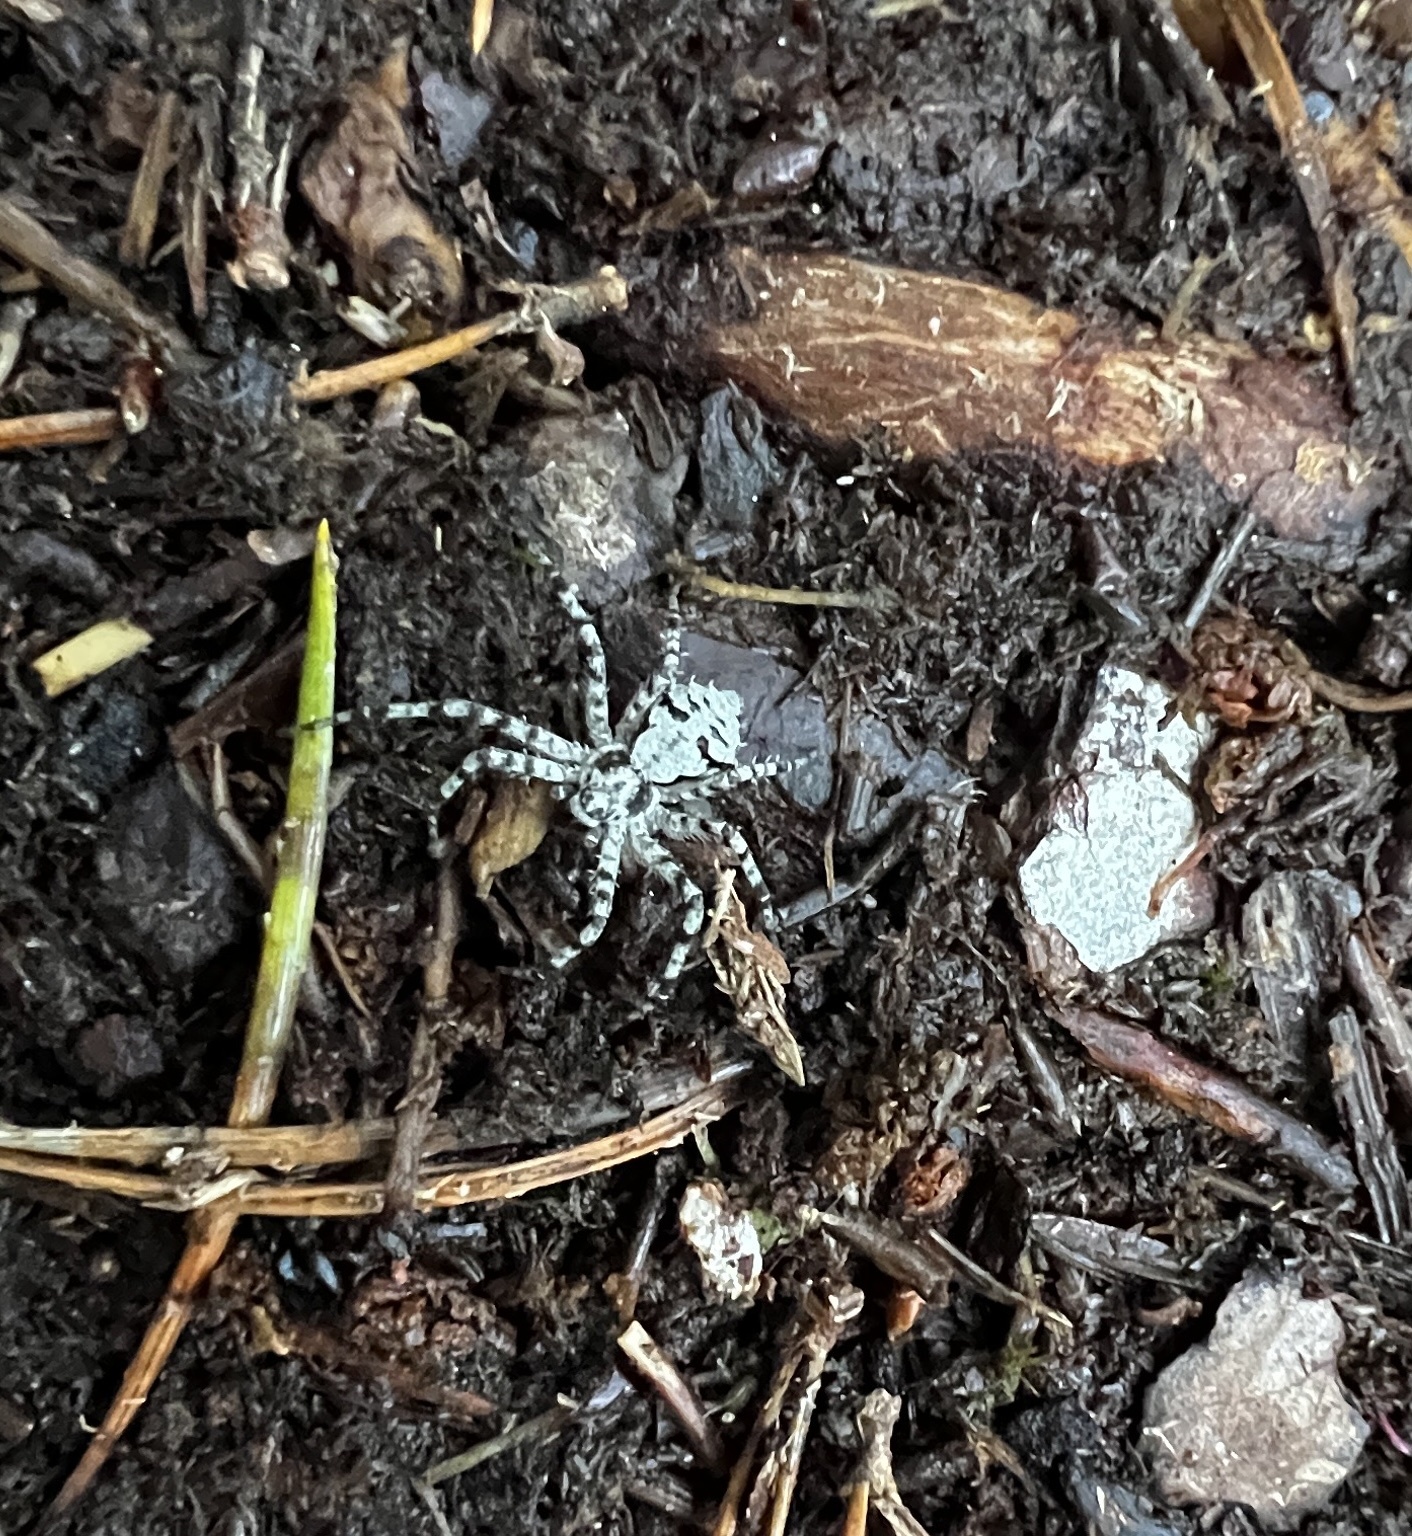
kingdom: Animalia
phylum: Arthropoda
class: Arachnida
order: Araneae
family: Philodromidae
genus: Philodromus
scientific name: Philodromus margaritatus
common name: Lichen running-spider
